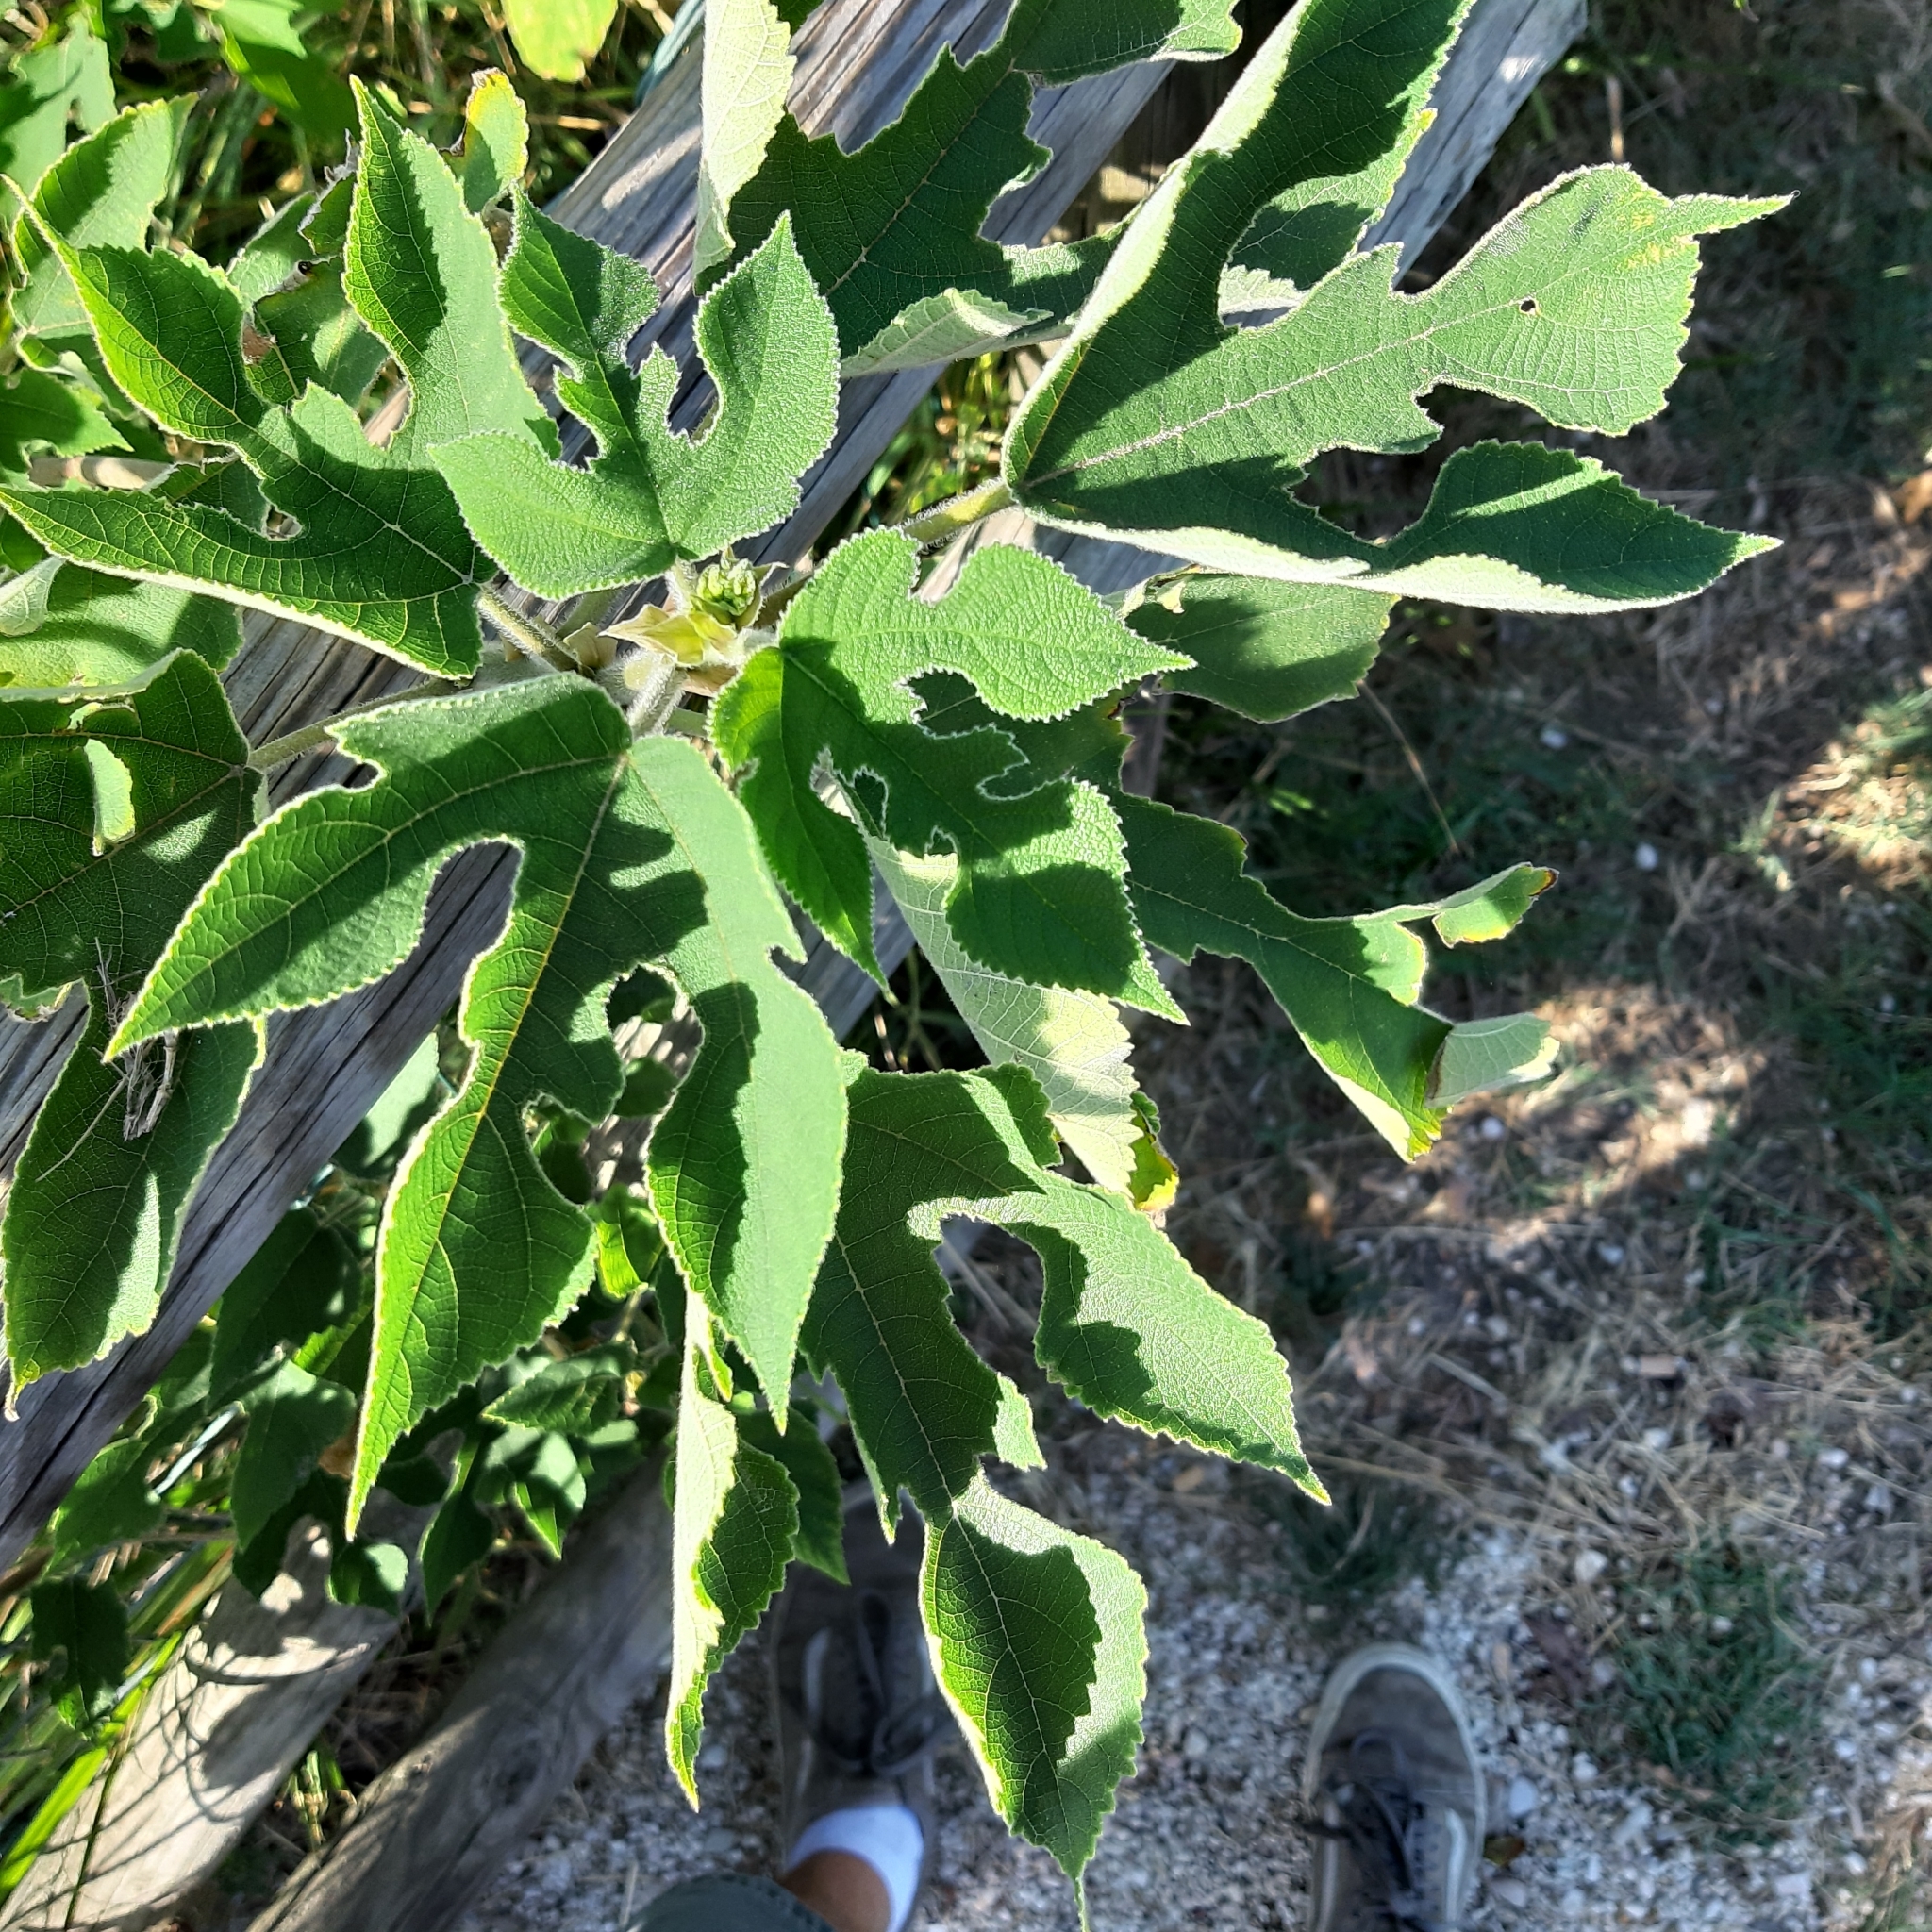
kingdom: Plantae
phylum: Tracheophyta
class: Magnoliopsida
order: Rosales
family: Moraceae
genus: Broussonetia
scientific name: Broussonetia papyrifera
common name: Paper mulberry
